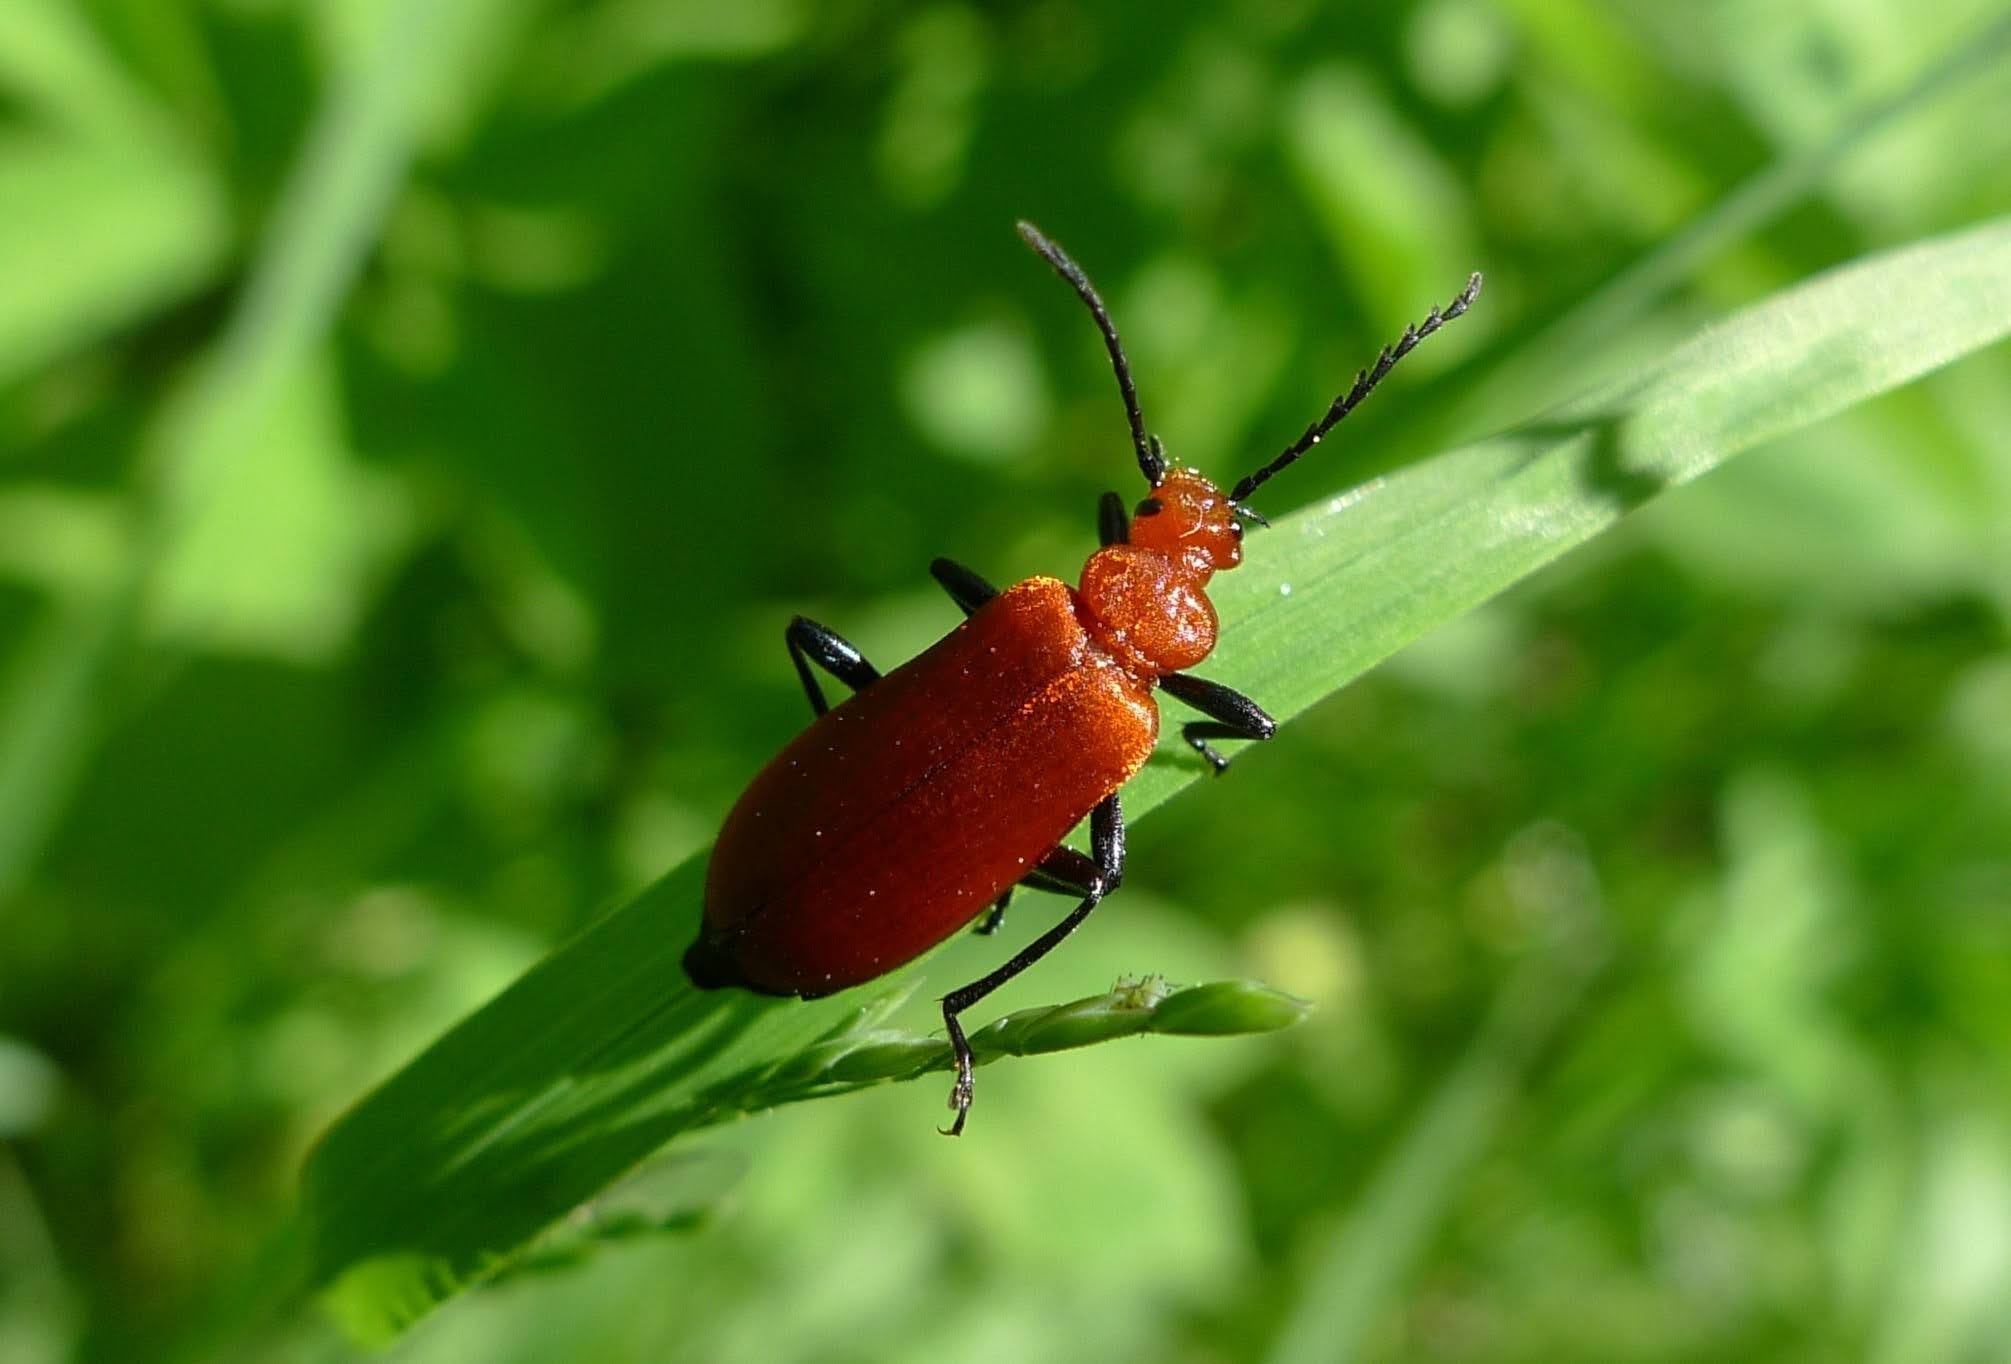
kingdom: Animalia
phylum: Arthropoda
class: Insecta
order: Coleoptera
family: Pyrochroidae
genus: Pyrochroa
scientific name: Pyrochroa serraticornis
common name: Red-headed cardinal beetle
